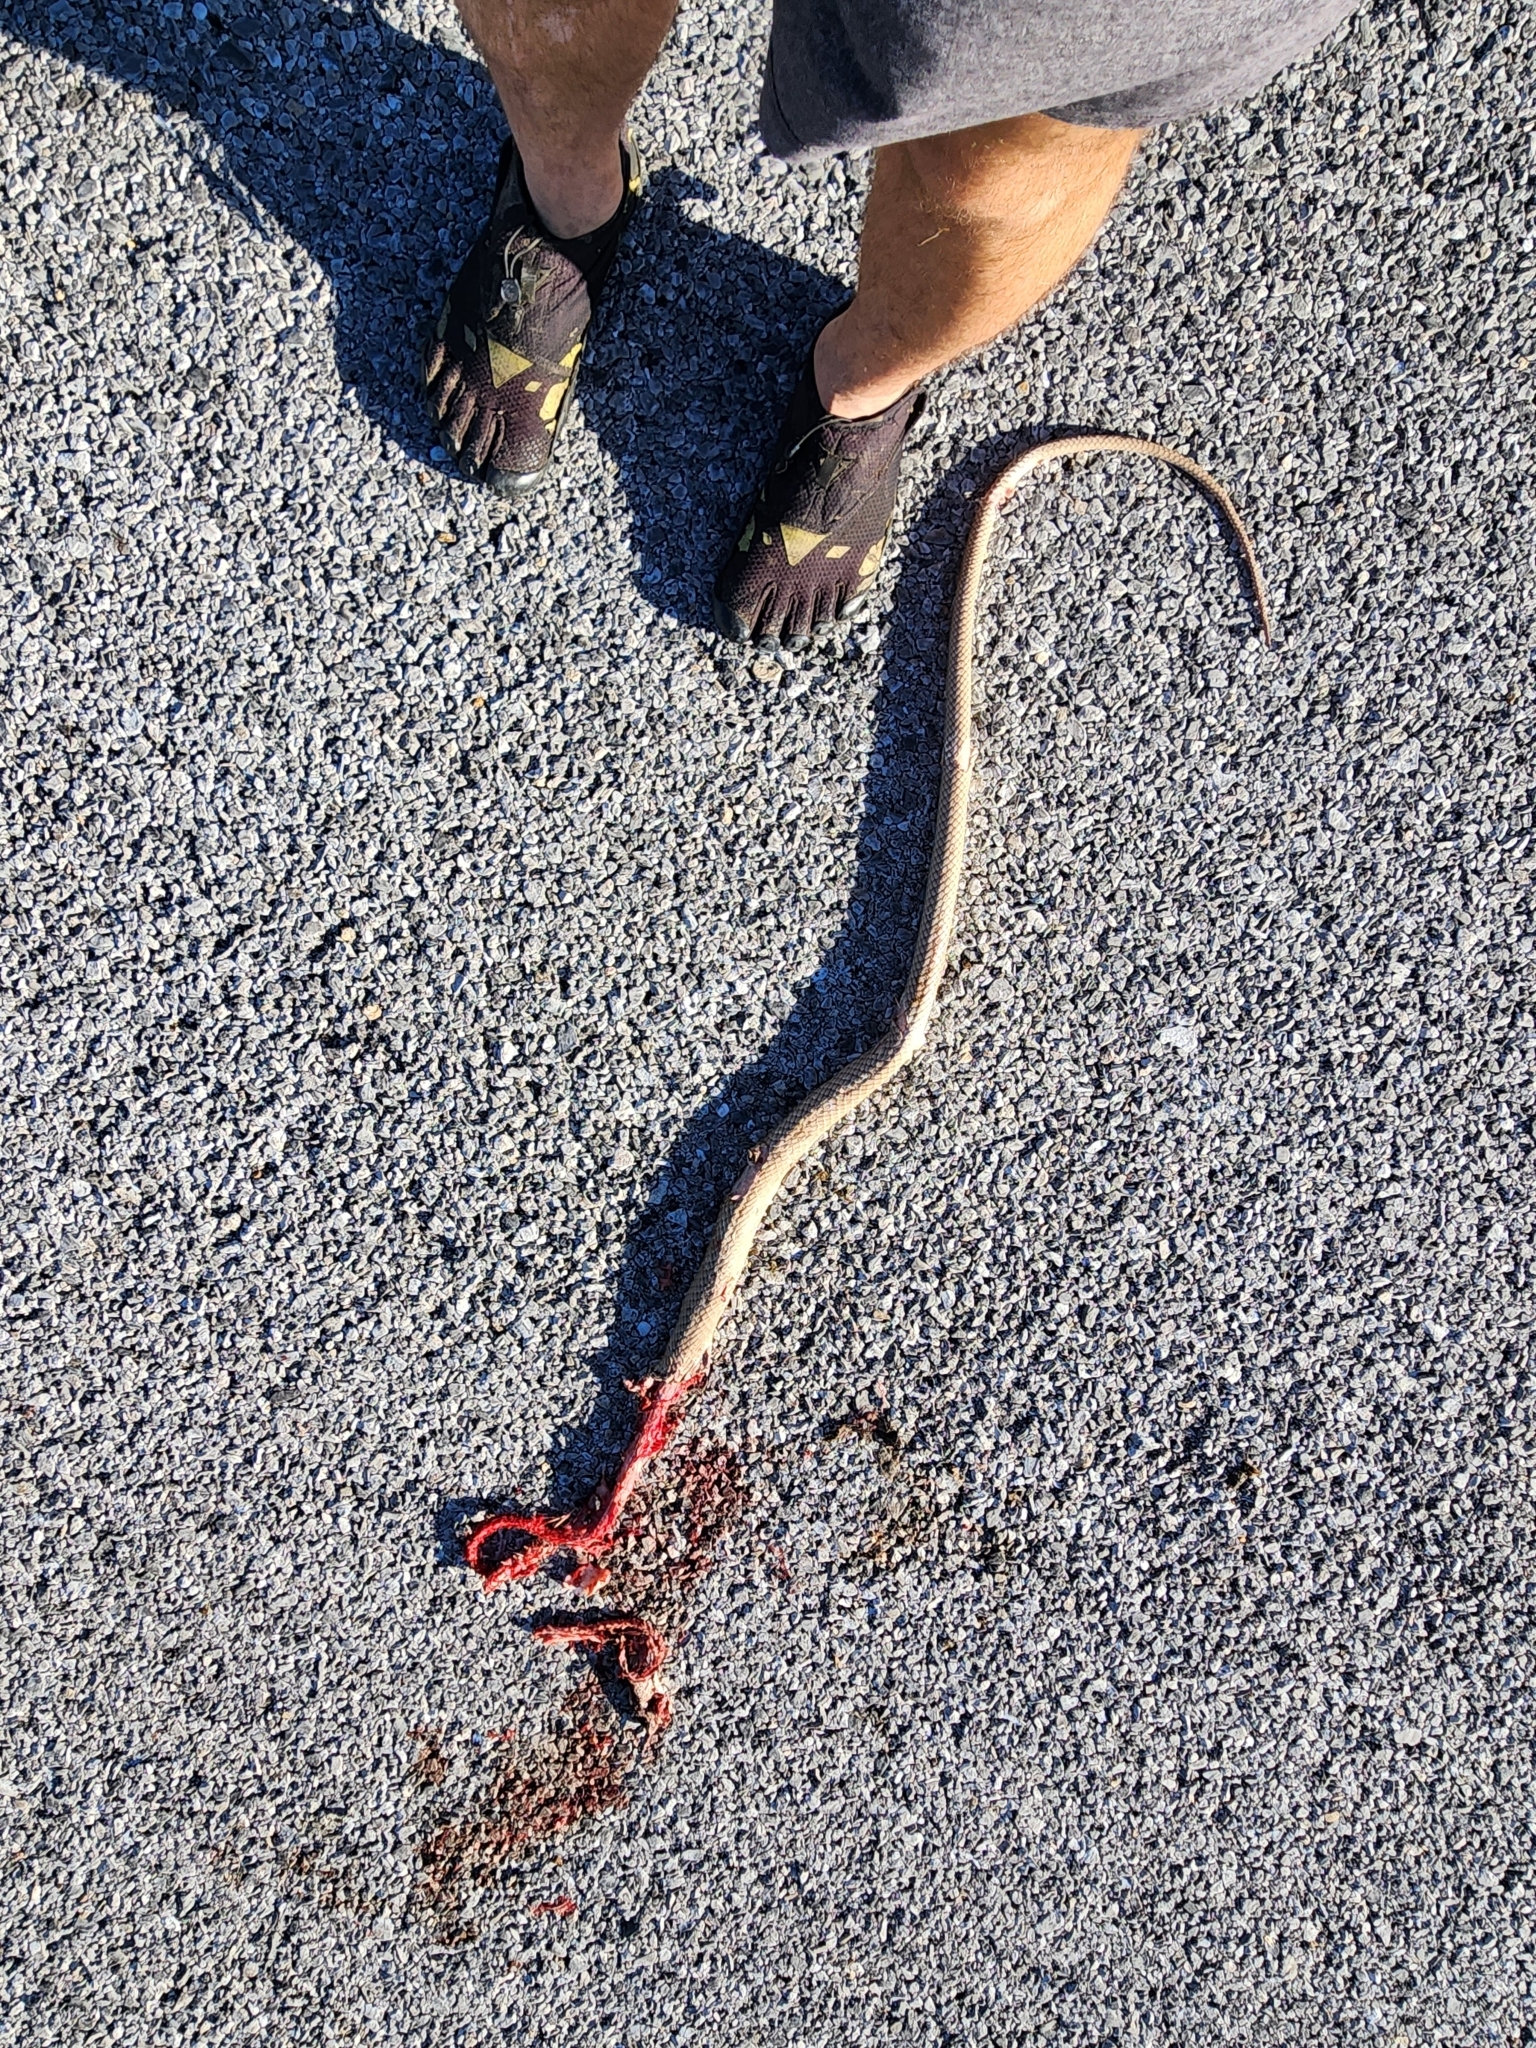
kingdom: Animalia
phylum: Chordata
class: Squamata
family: Colubridae
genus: Masticophis
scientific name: Masticophis flagellum
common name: Coachwhip
